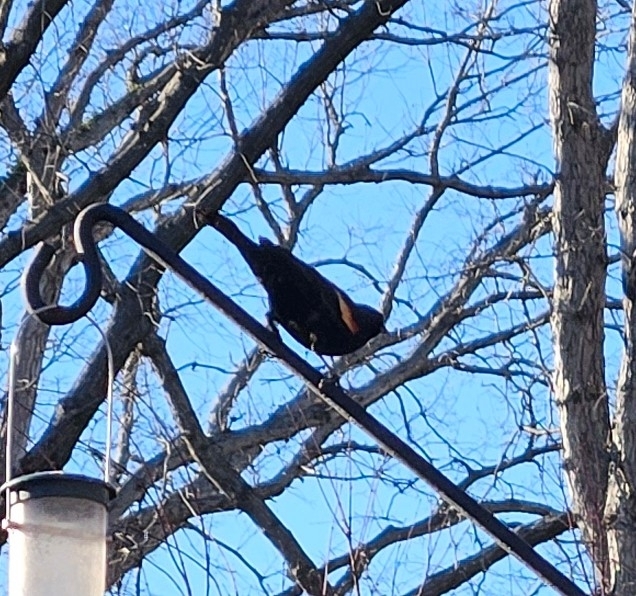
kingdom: Animalia
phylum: Chordata
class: Aves
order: Passeriformes
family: Icteridae
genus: Agelaius
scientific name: Agelaius phoeniceus
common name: Red-winged blackbird
